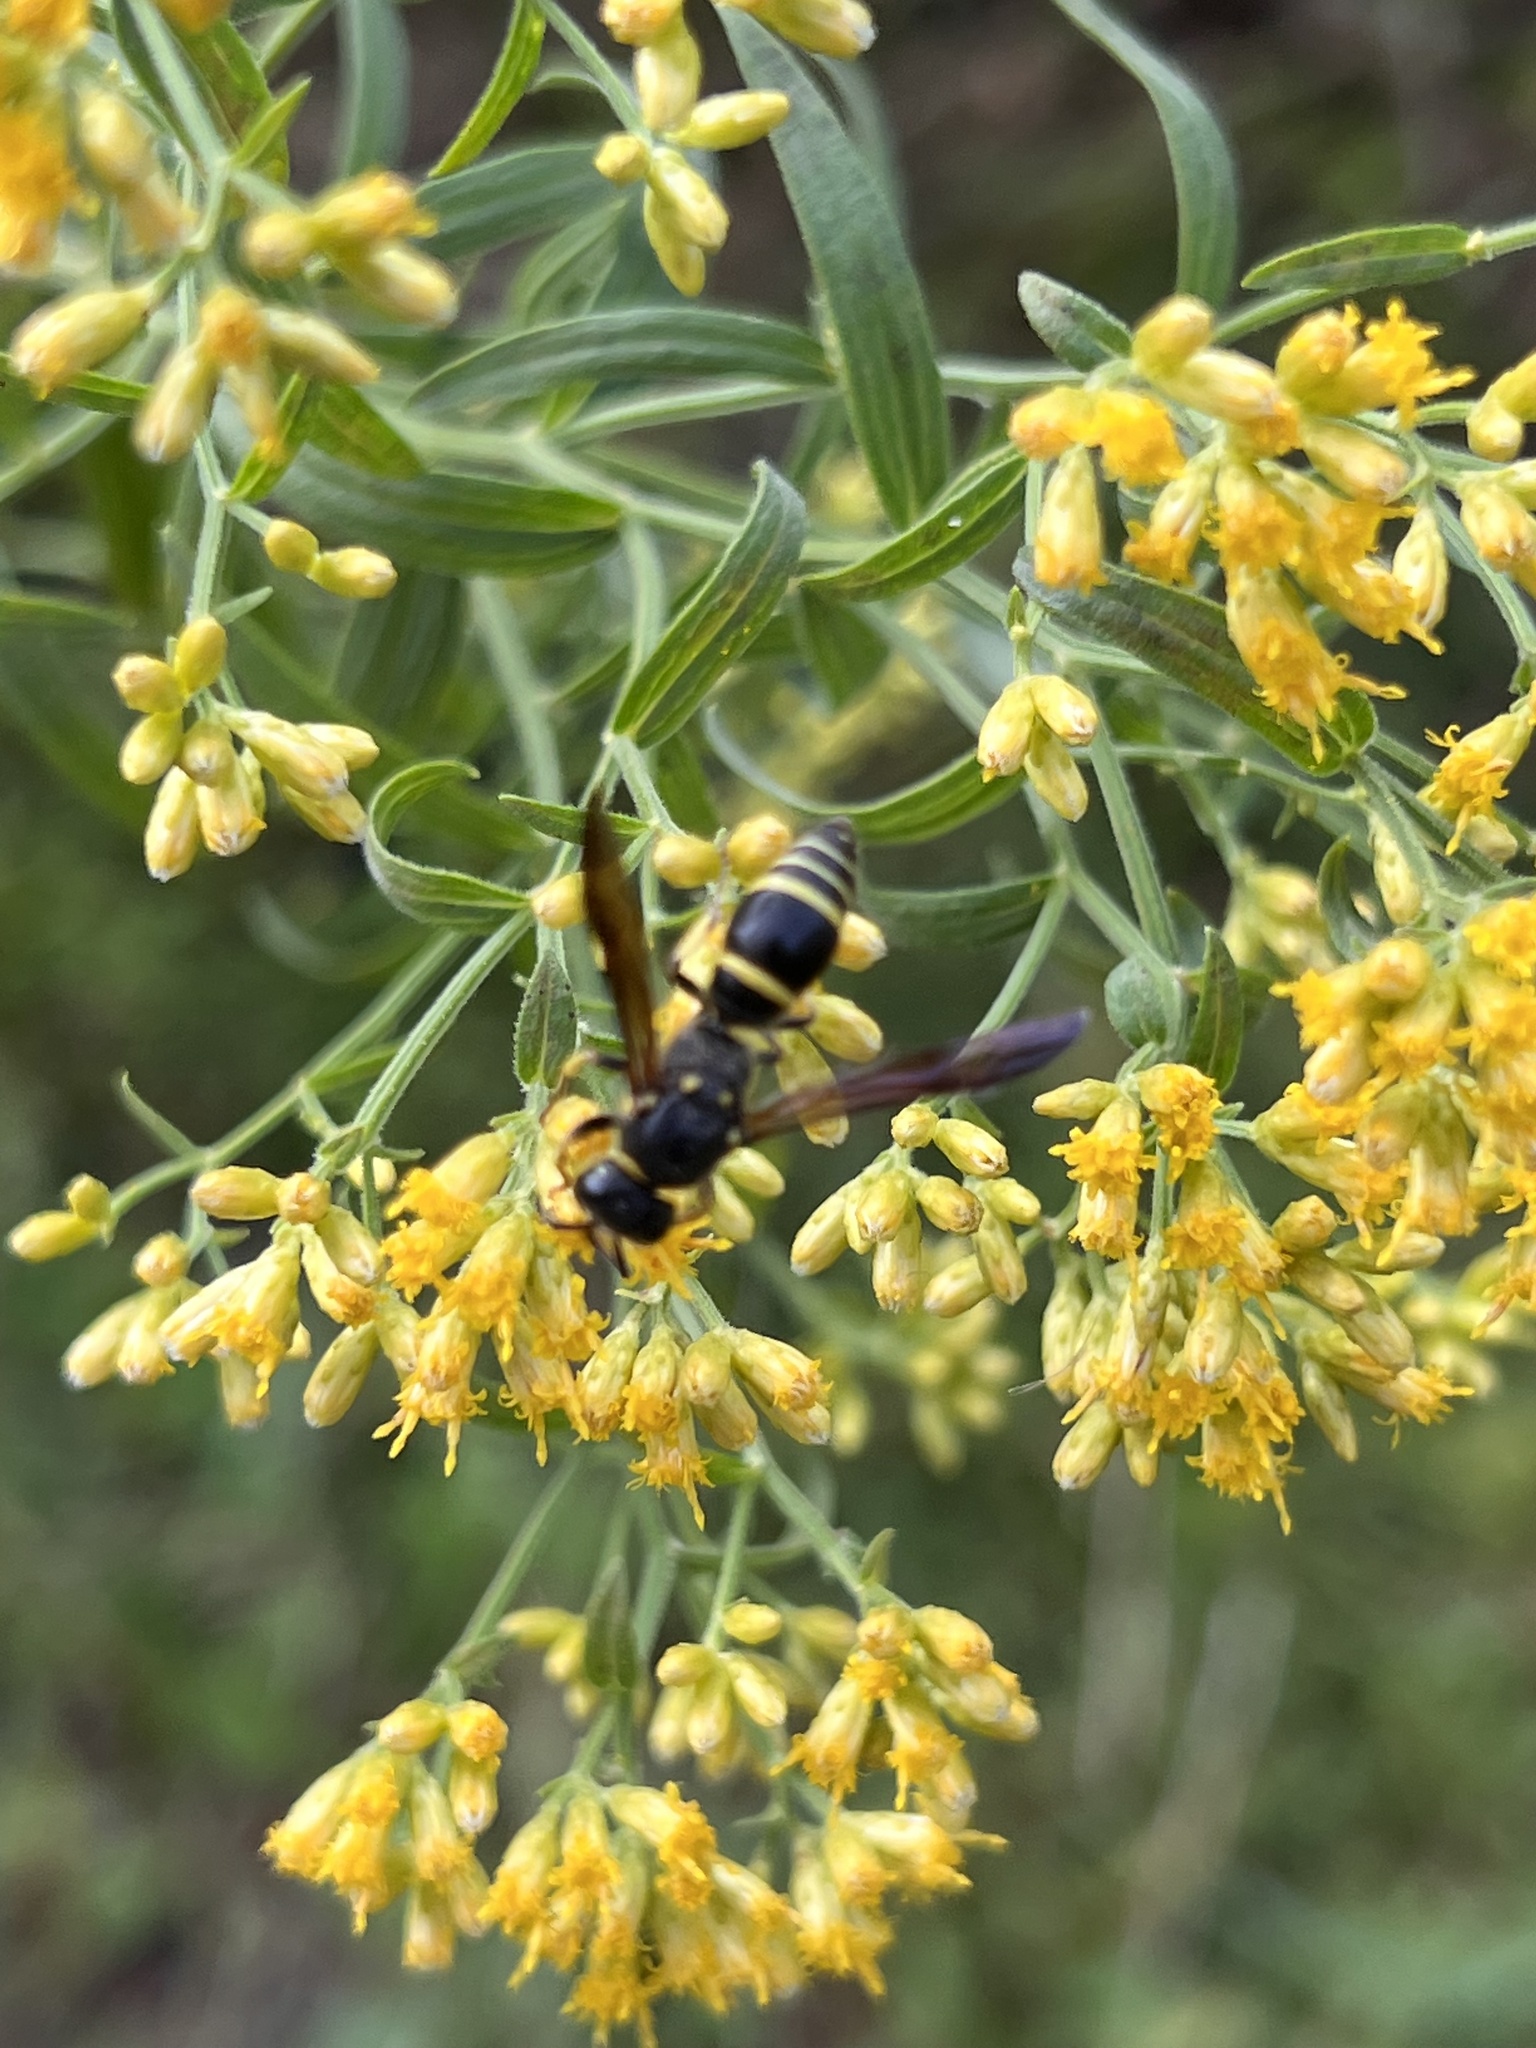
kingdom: Animalia
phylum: Arthropoda
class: Insecta
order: Hymenoptera
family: Vespidae
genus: Ancistrocerus
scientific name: Ancistrocerus
